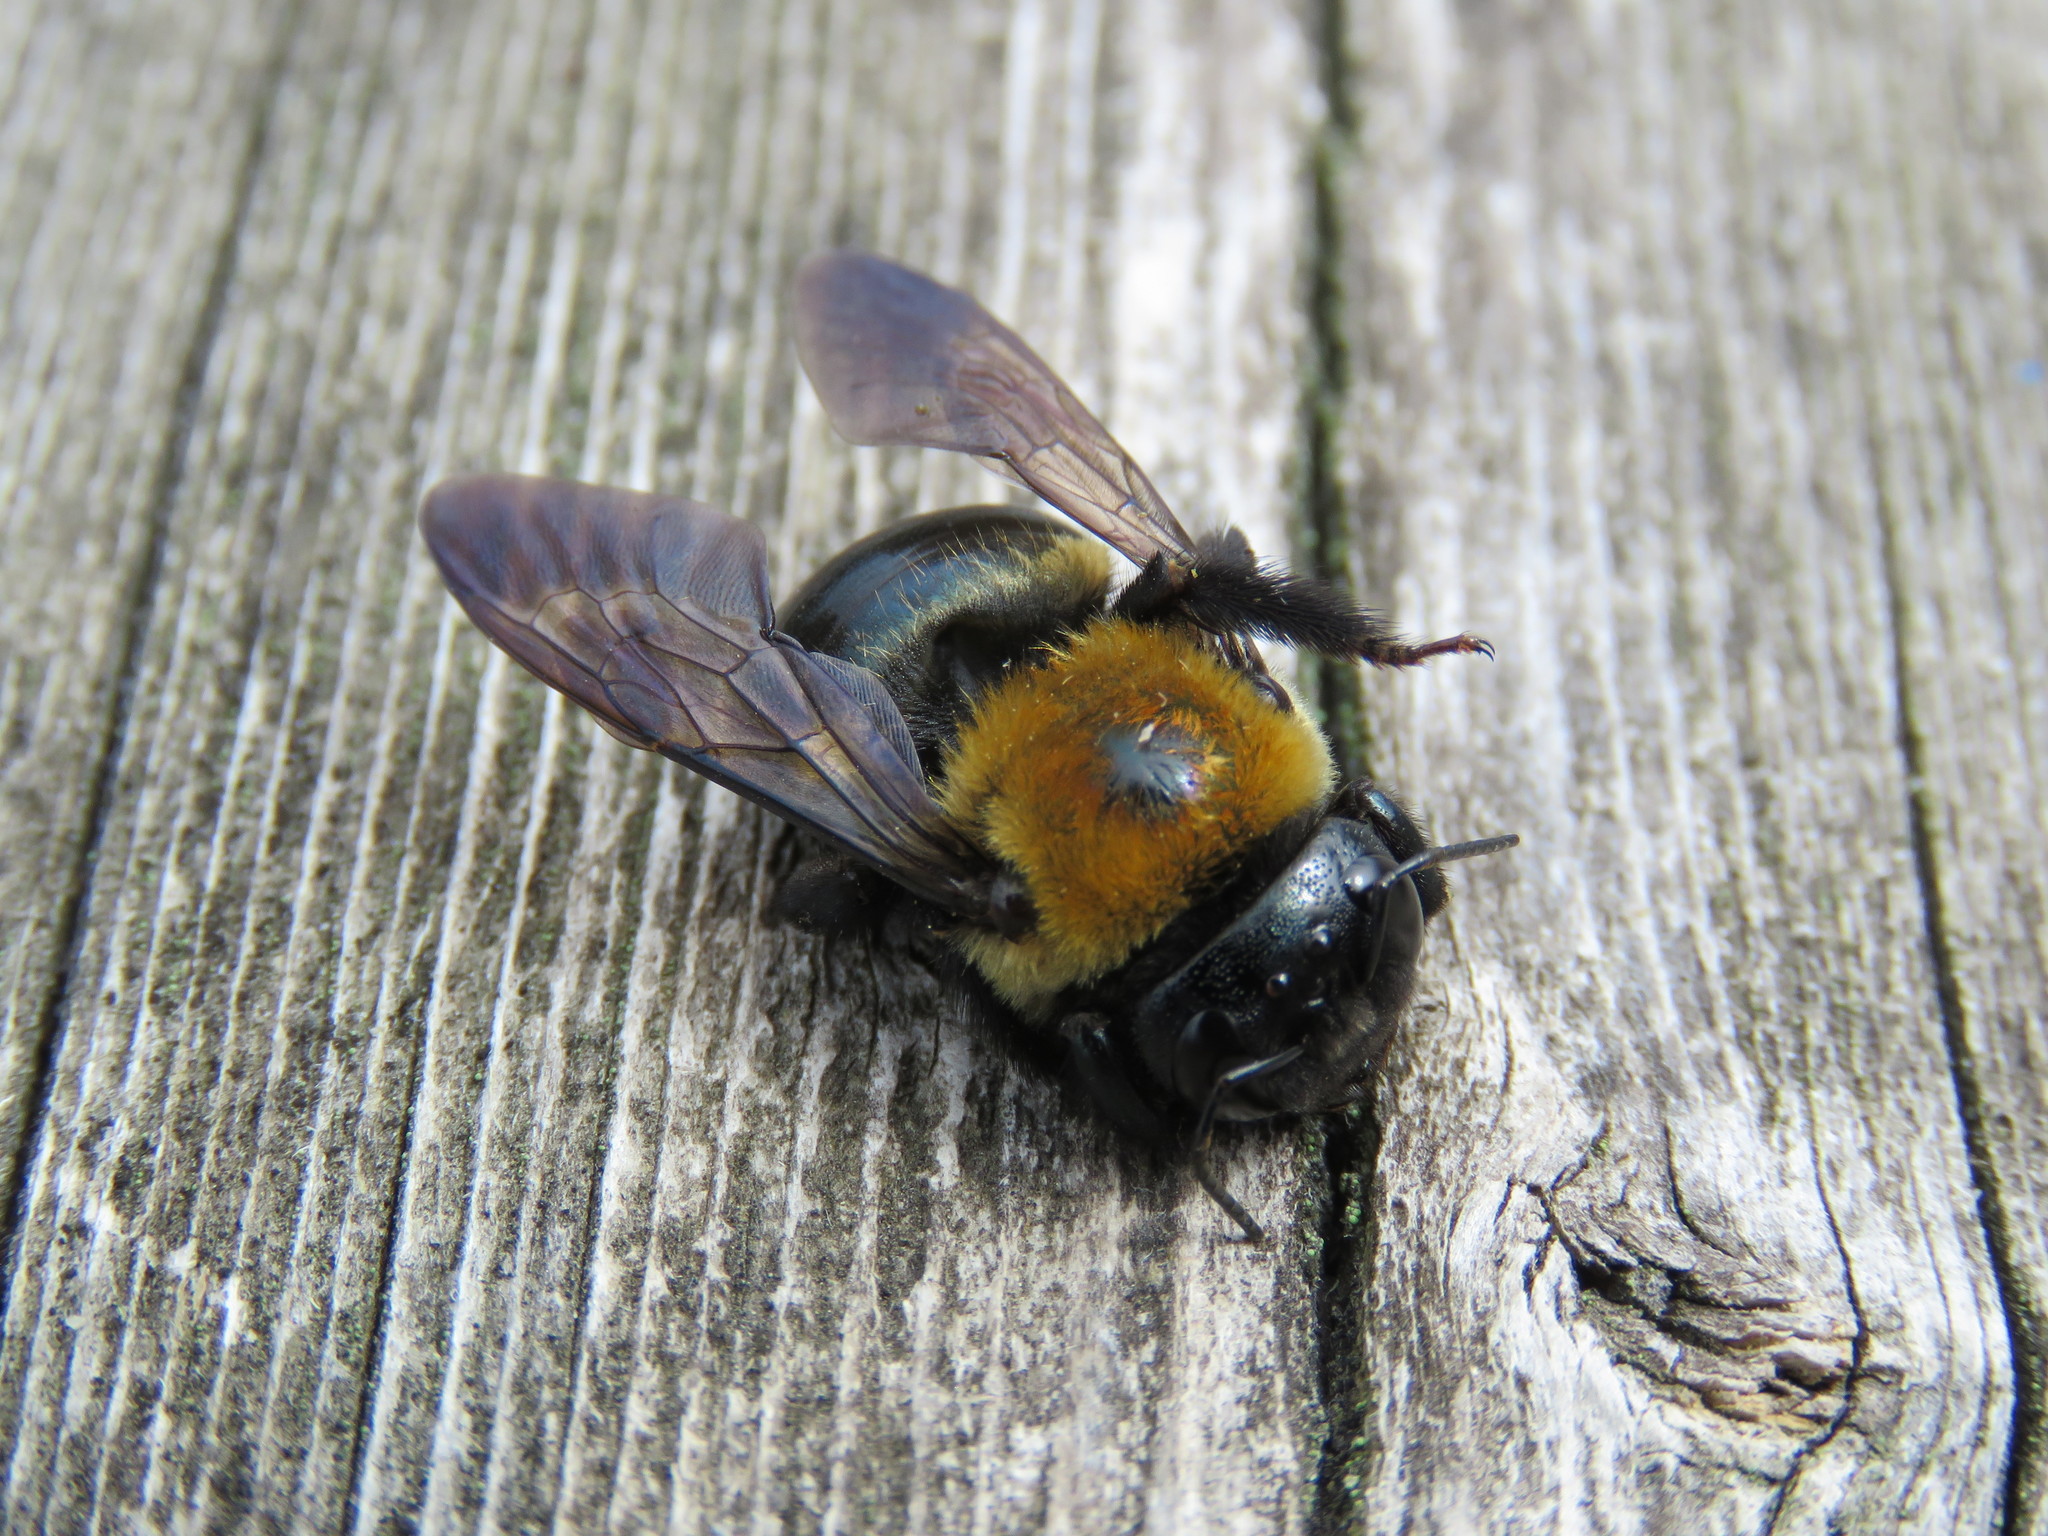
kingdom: Animalia
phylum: Arthropoda
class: Insecta
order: Hymenoptera
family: Apidae
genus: Xylocopa
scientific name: Xylocopa virginica
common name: Carpenter bee
